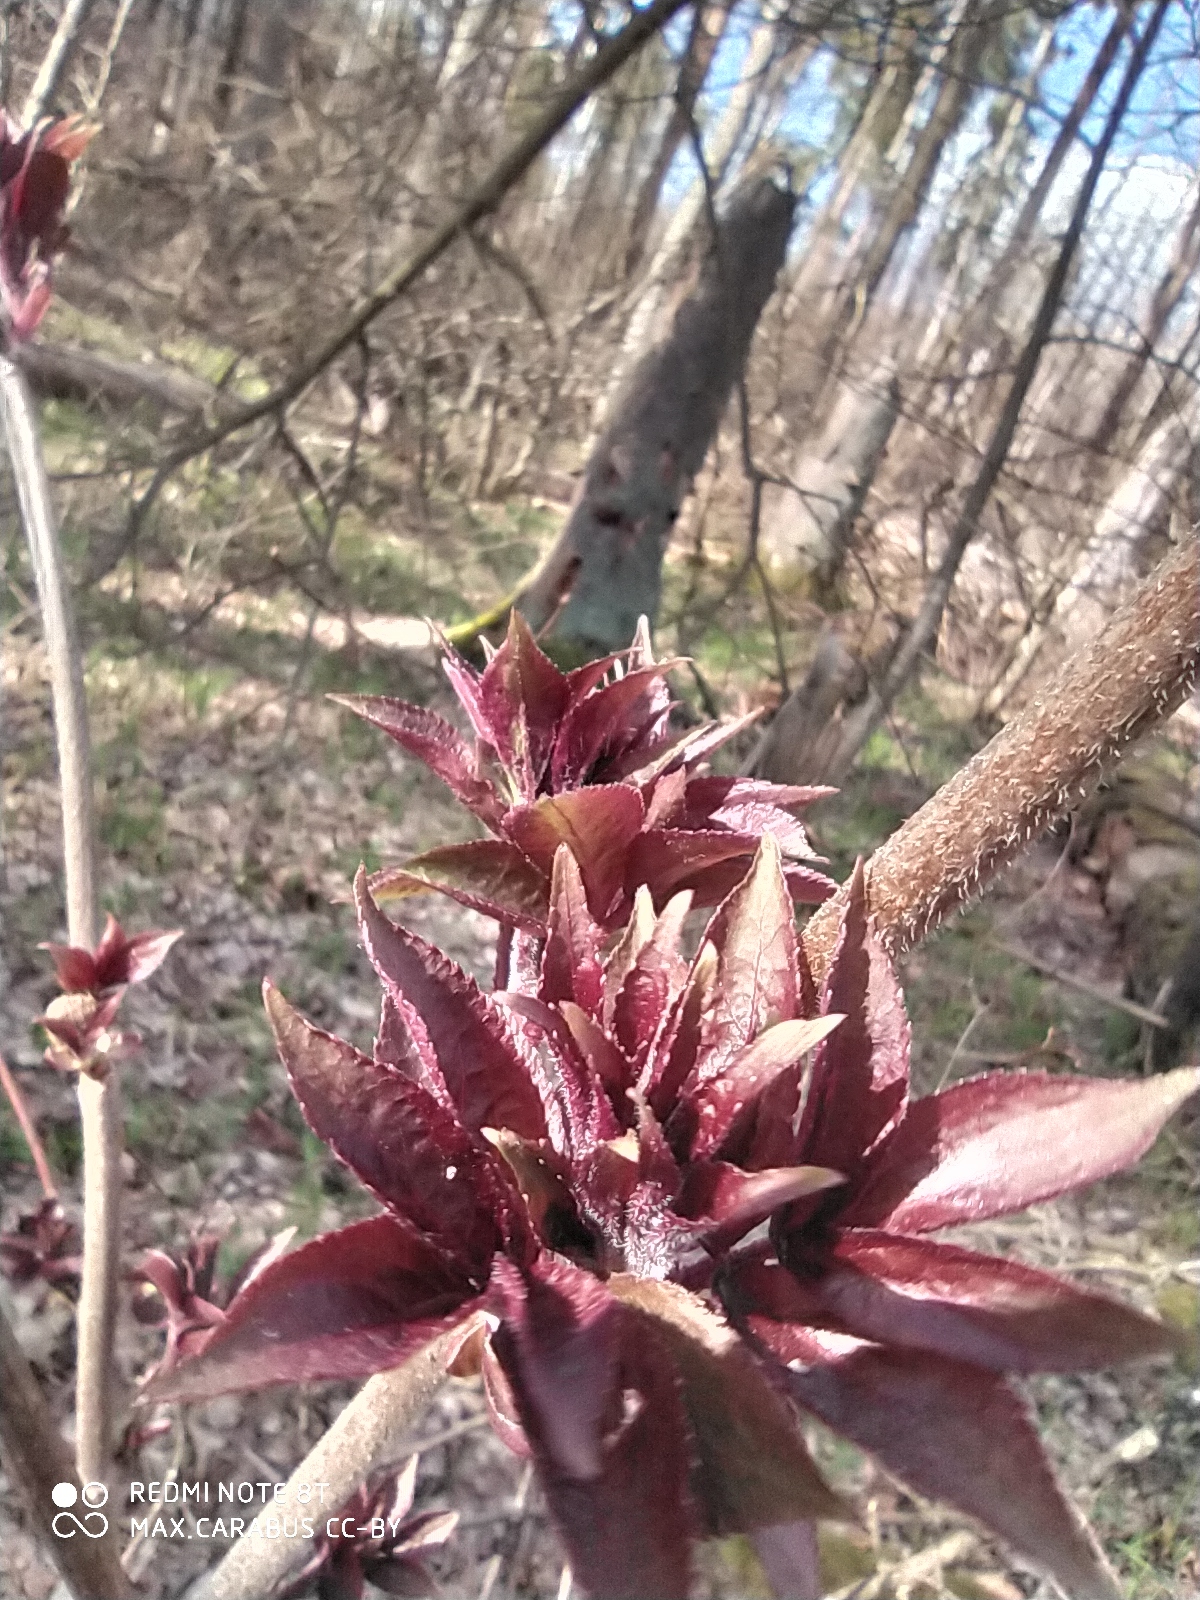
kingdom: Plantae
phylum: Tracheophyta
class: Magnoliopsida
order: Dipsacales
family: Viburnaceae
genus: Sambucus
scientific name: Sambucus racemosa
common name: Red-berried elder
